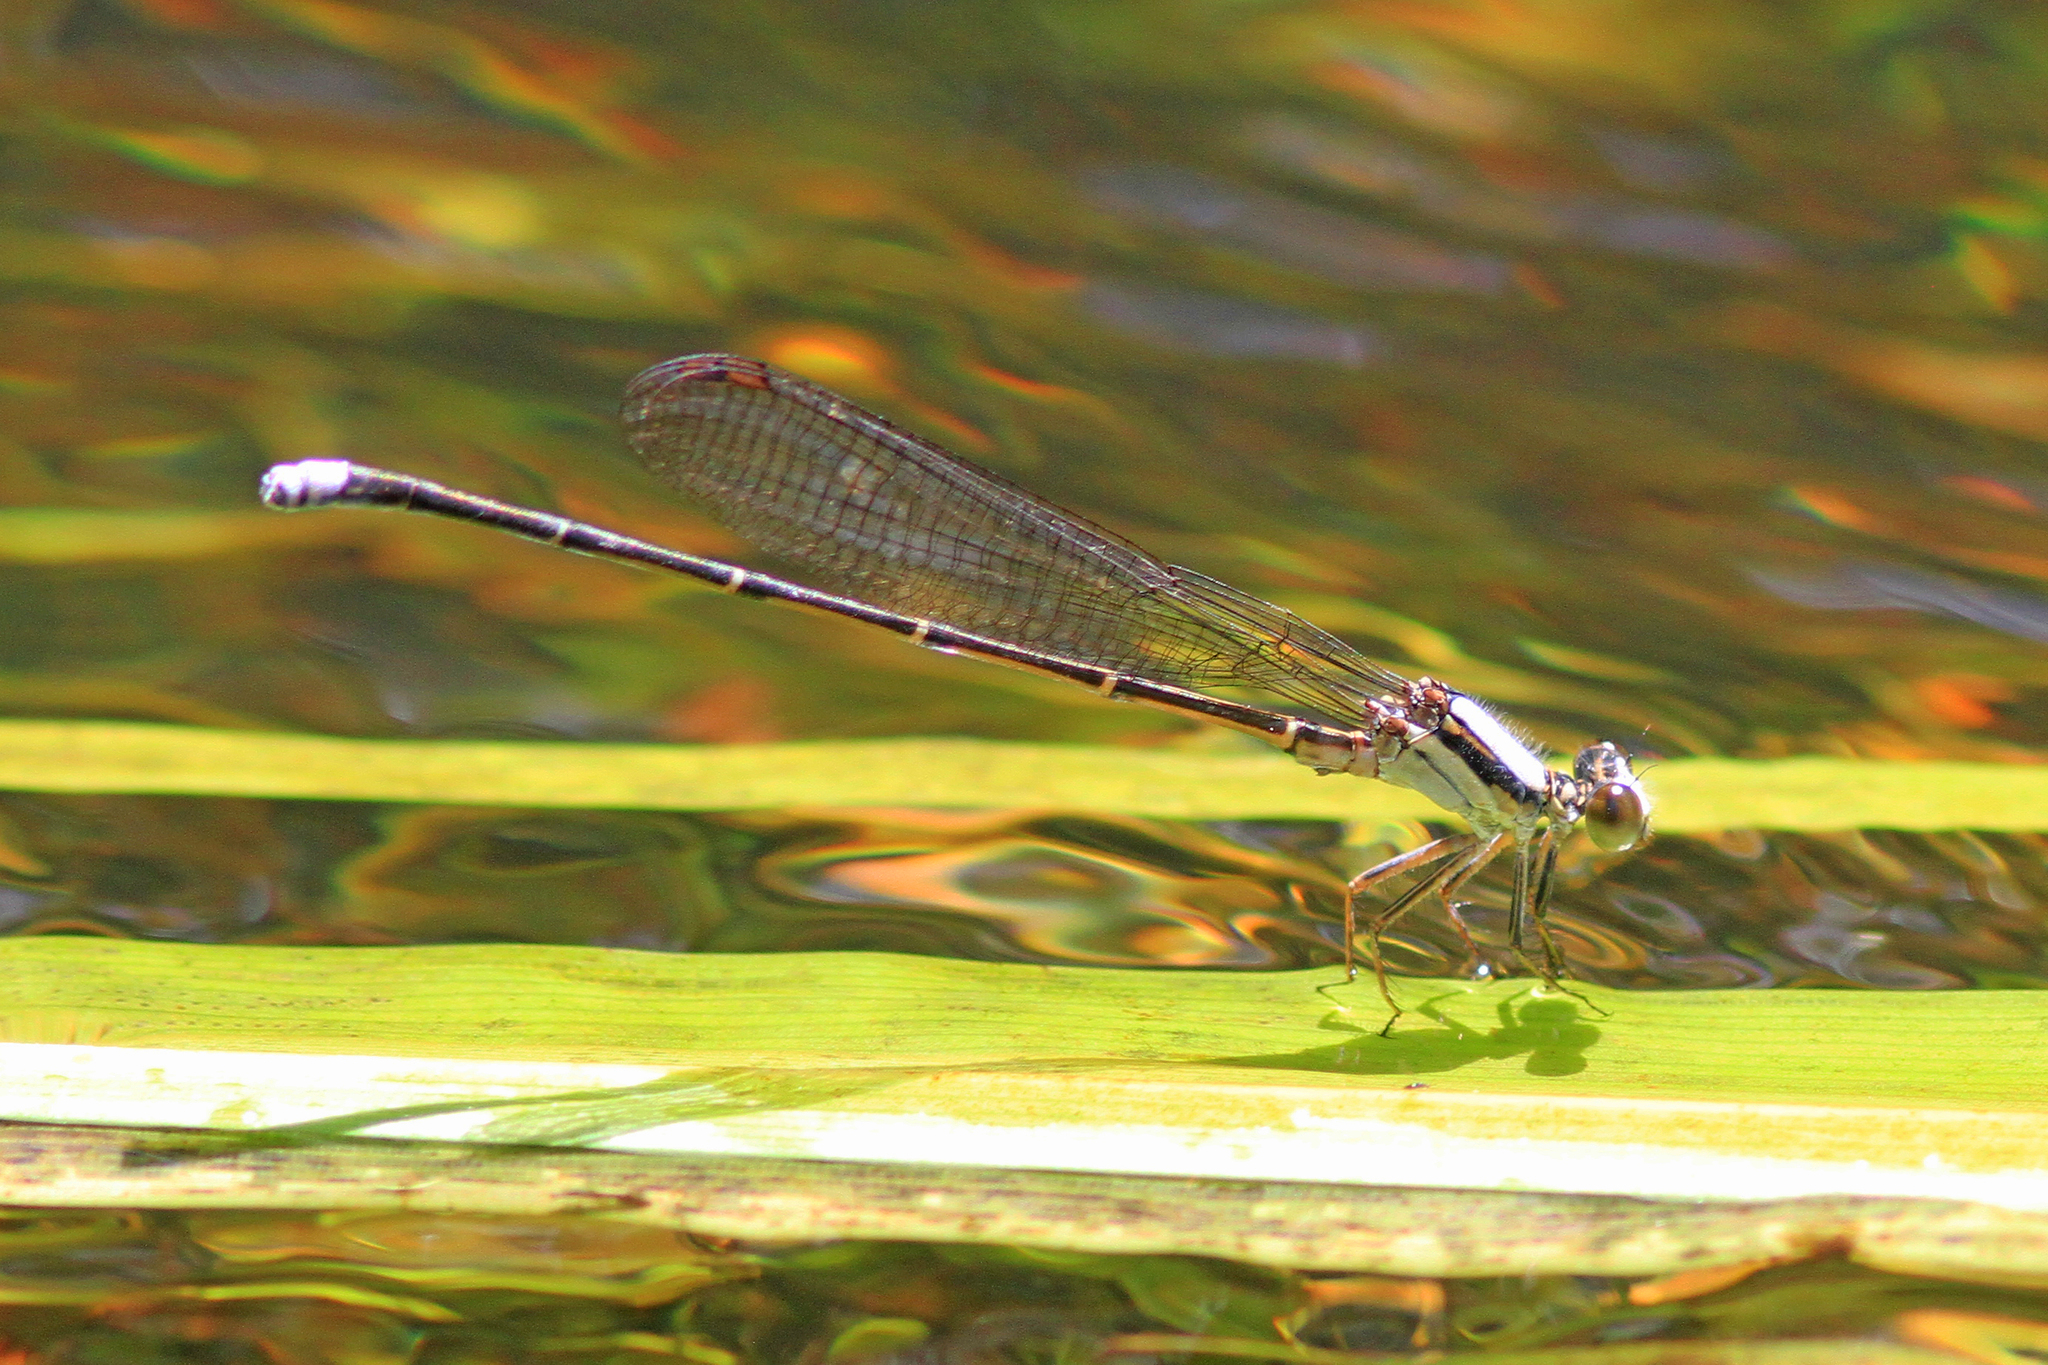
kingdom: Animalia
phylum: Arthropoda
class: Insecta
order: Odonata
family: Coenagrionidae
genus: Argia
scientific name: Argia moesta
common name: Powdered dancer
